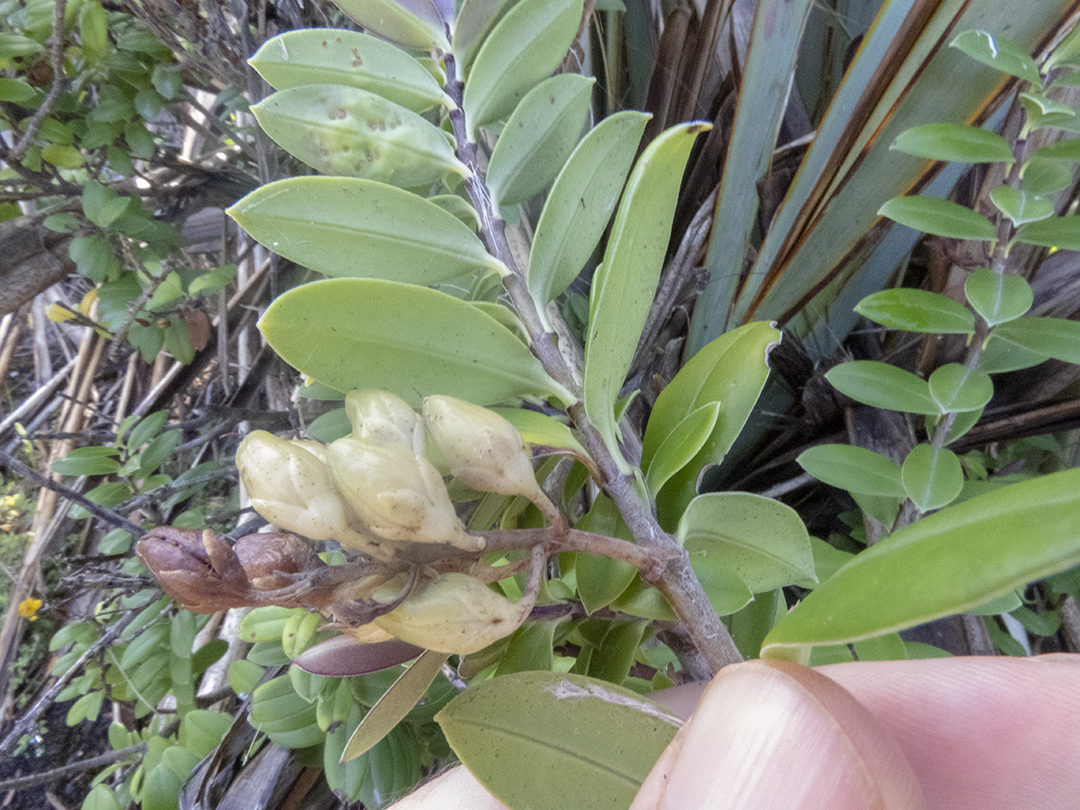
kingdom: Plantae
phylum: Tracheophyta
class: Magnoliopsida
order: Lamiales
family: Plantaginaceae
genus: Veronica
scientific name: Veronica elliptica
